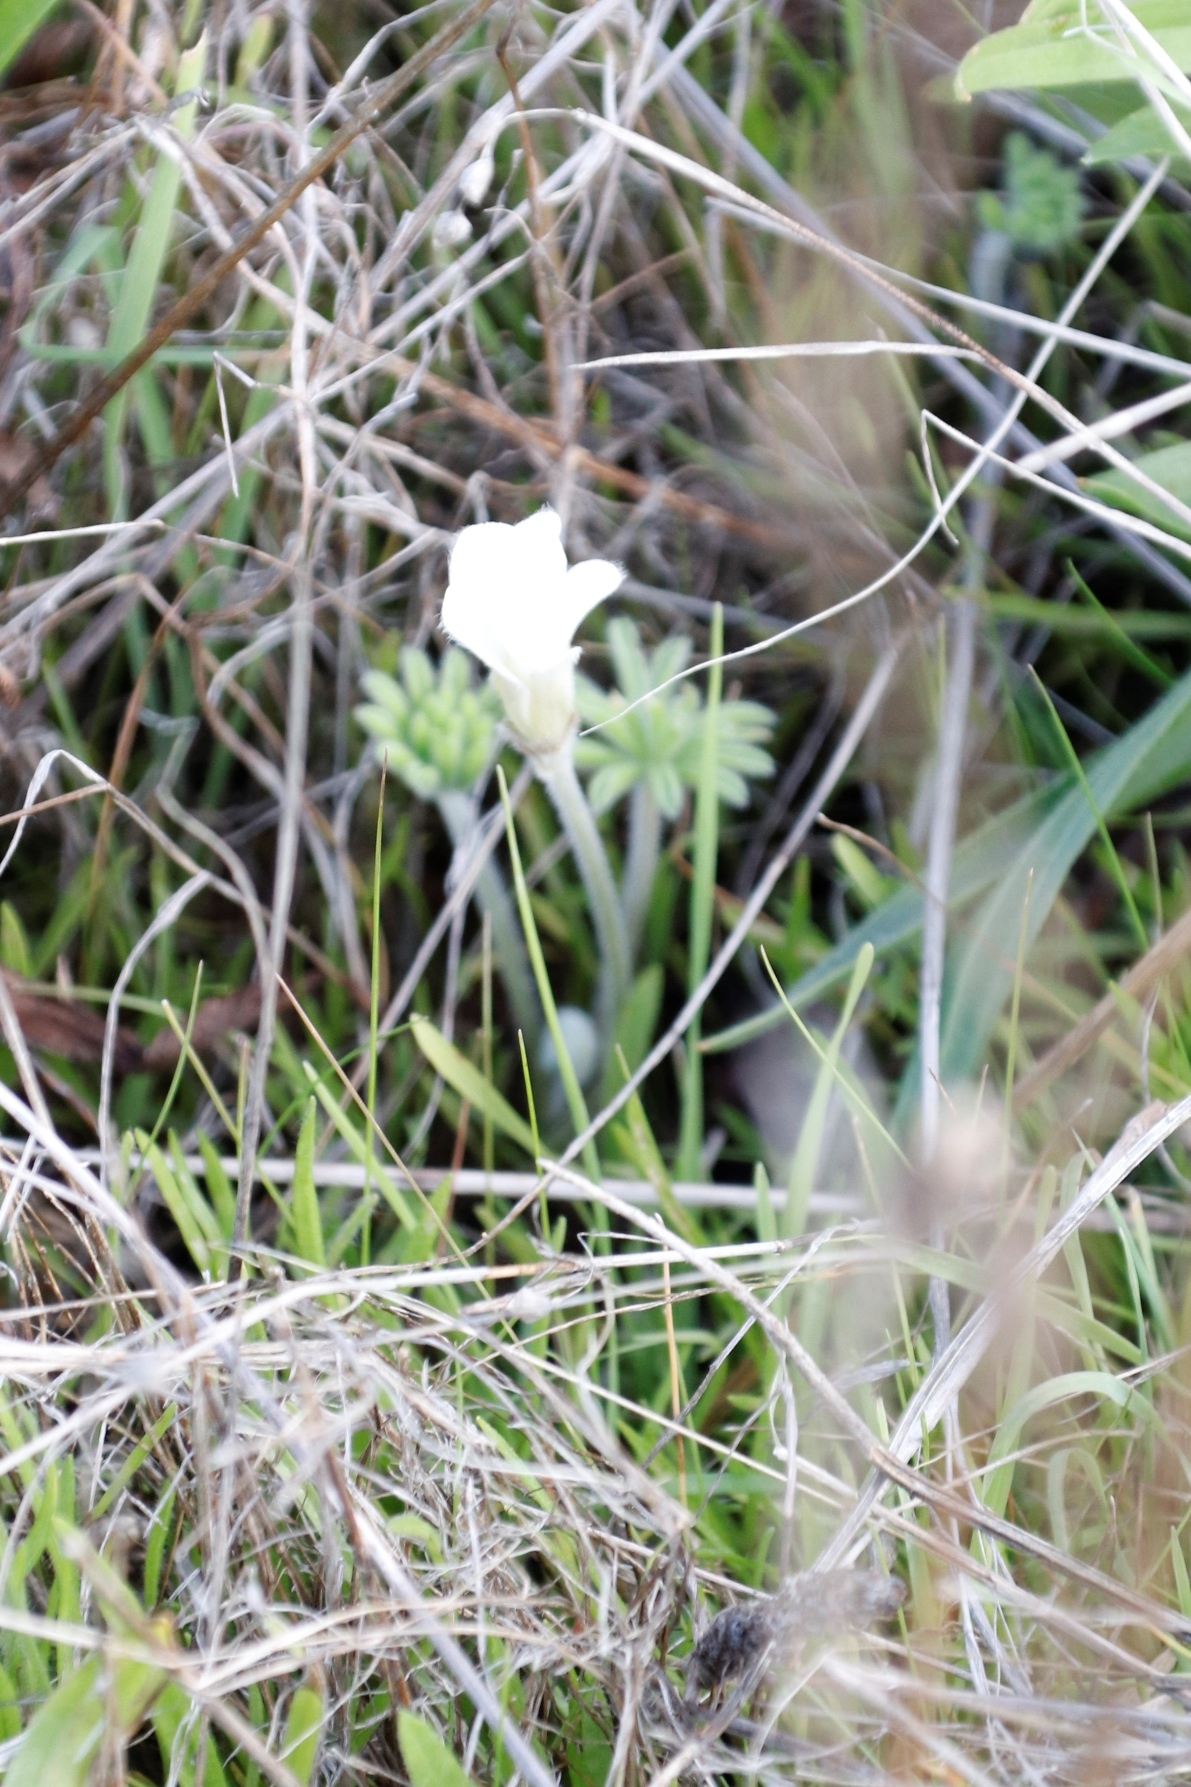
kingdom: Plantae
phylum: Tracheophyta
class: Magnoliopsida
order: Oxalidales
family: Oxalidaceae
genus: Oxalis
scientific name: Oxalis tomentosa
